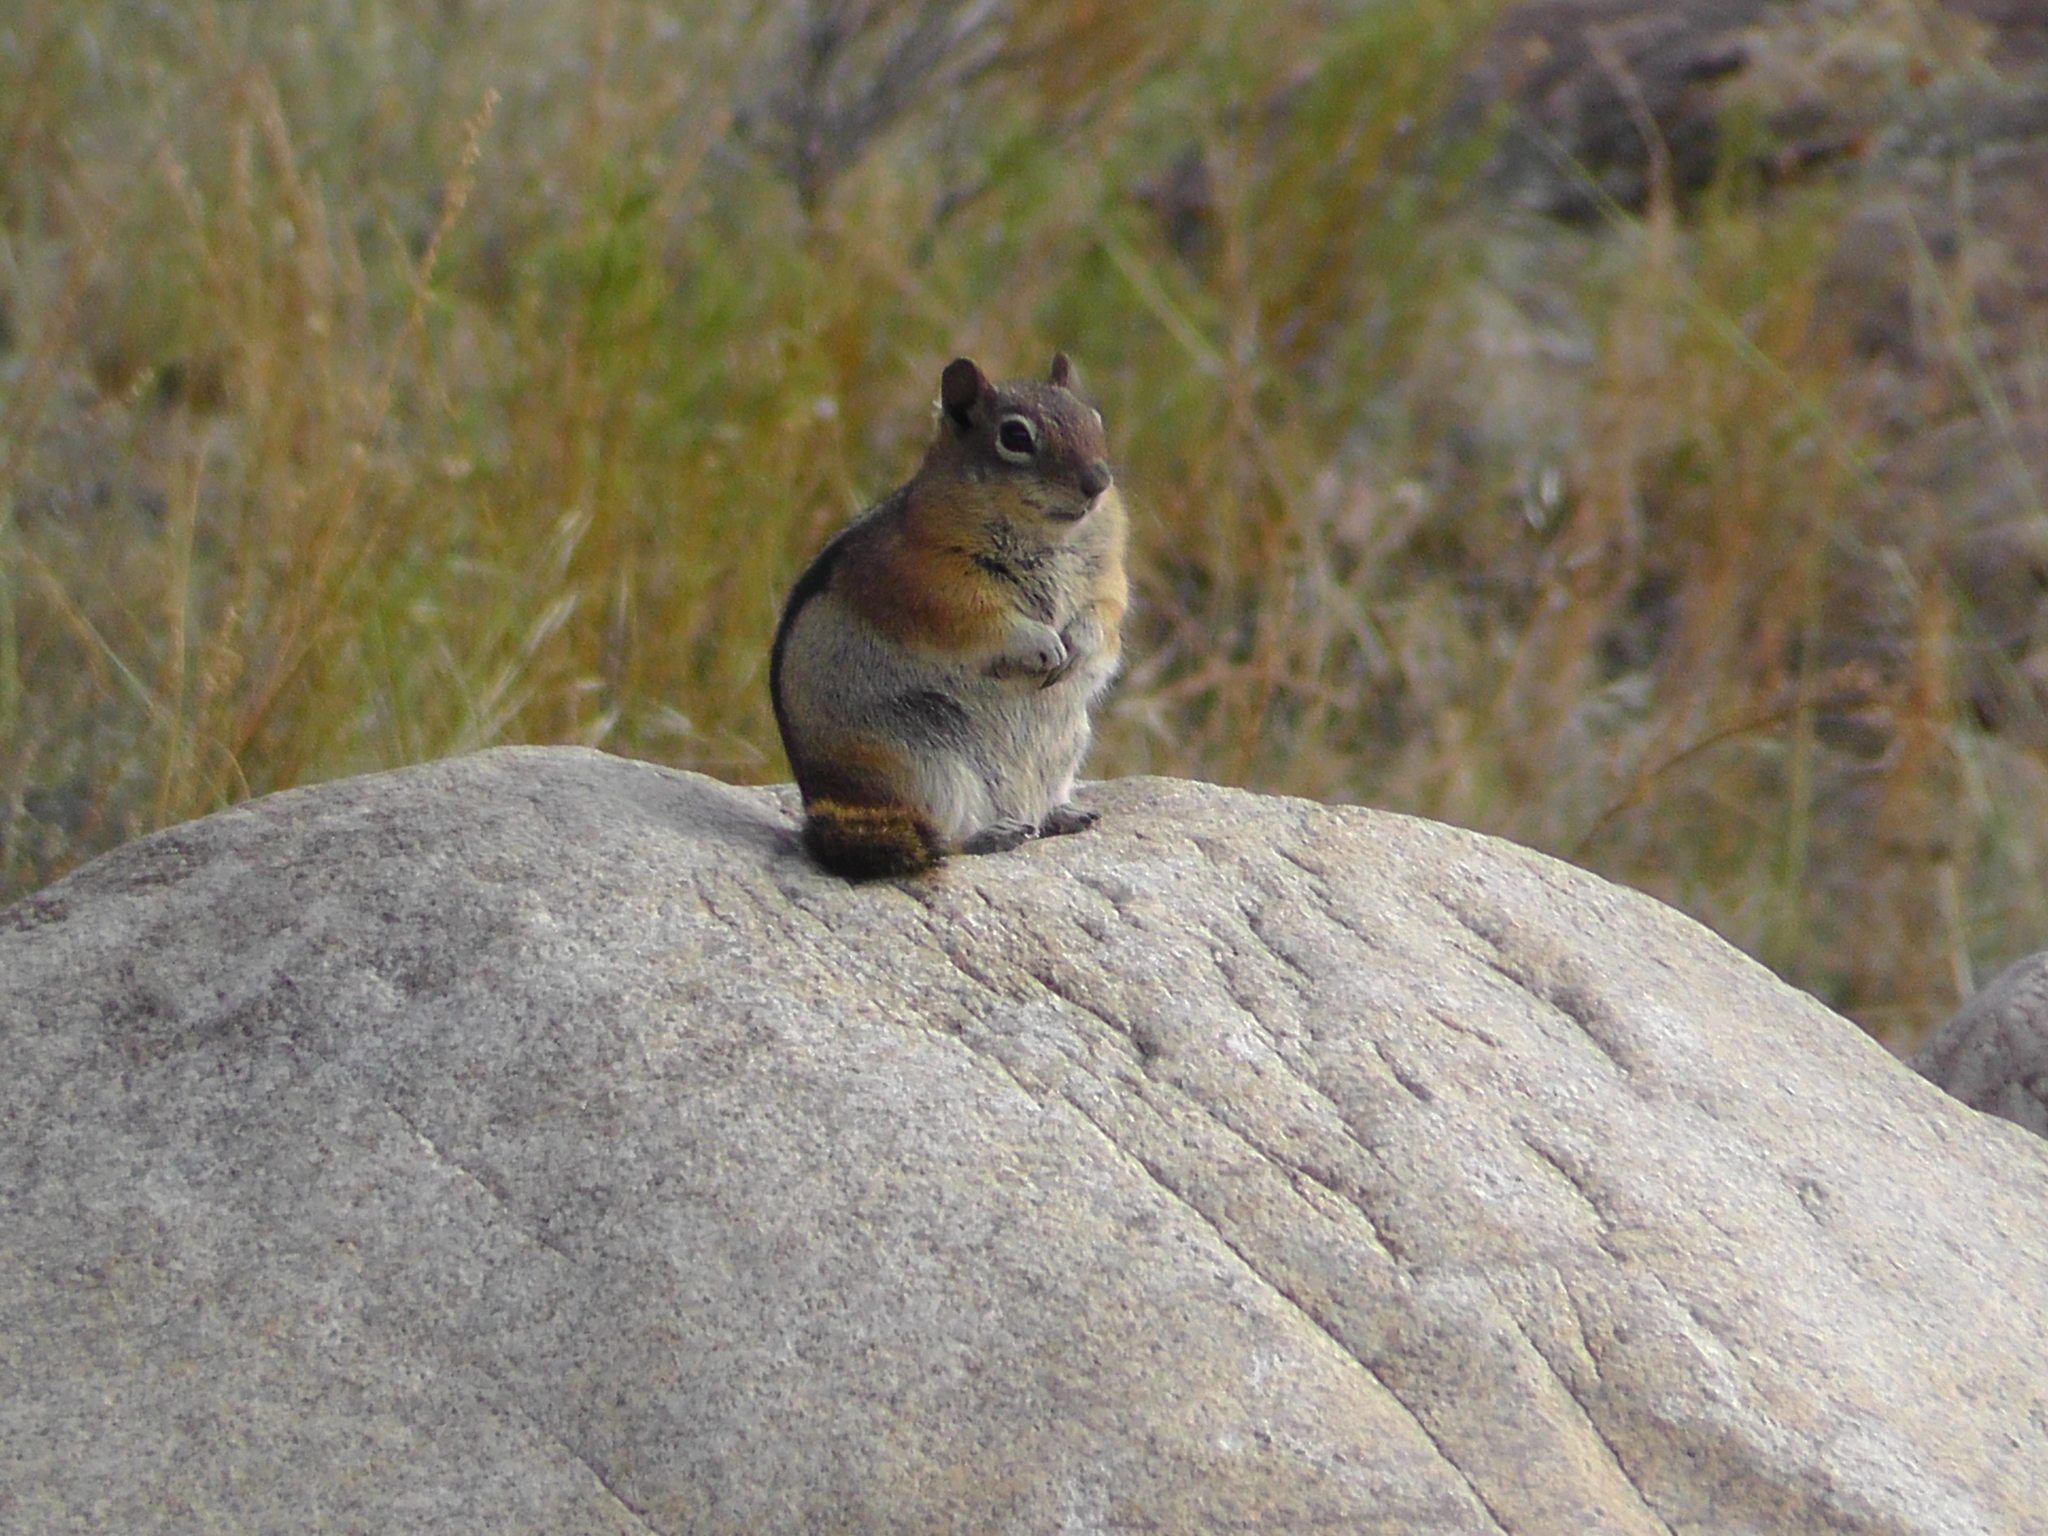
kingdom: Animalia
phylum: Chordata
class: Mammalia
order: Rodentia
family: Sciuridae
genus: Callospermophilus
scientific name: Callospermophilus lateralis
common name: Golden-mantled ground squirrel
